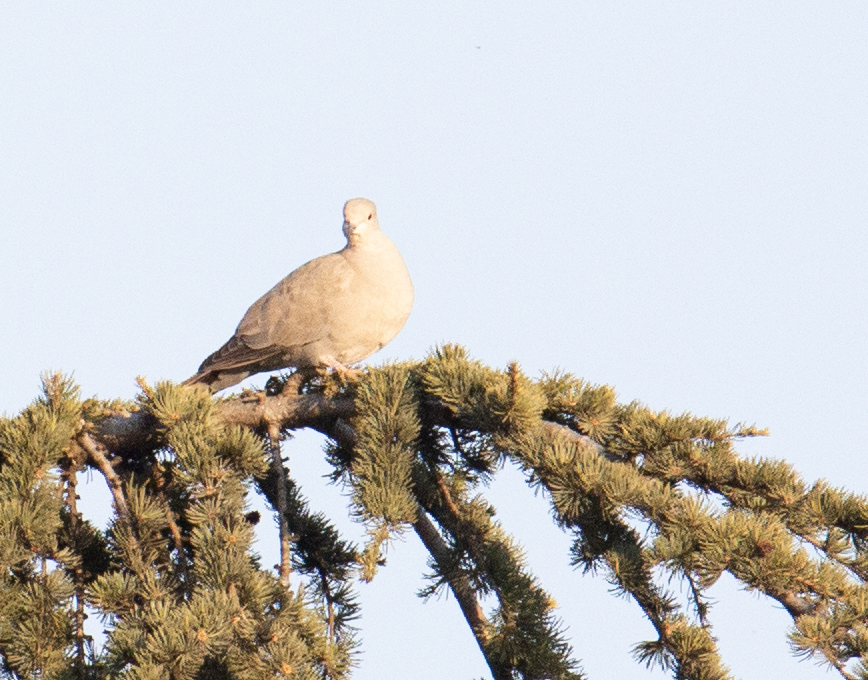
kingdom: Animalia
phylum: Chordata
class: Aves
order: Columbiformes
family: Columbidae
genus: Streptopelia
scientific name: Streptopelia decaocto
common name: Eurasian collared dove
